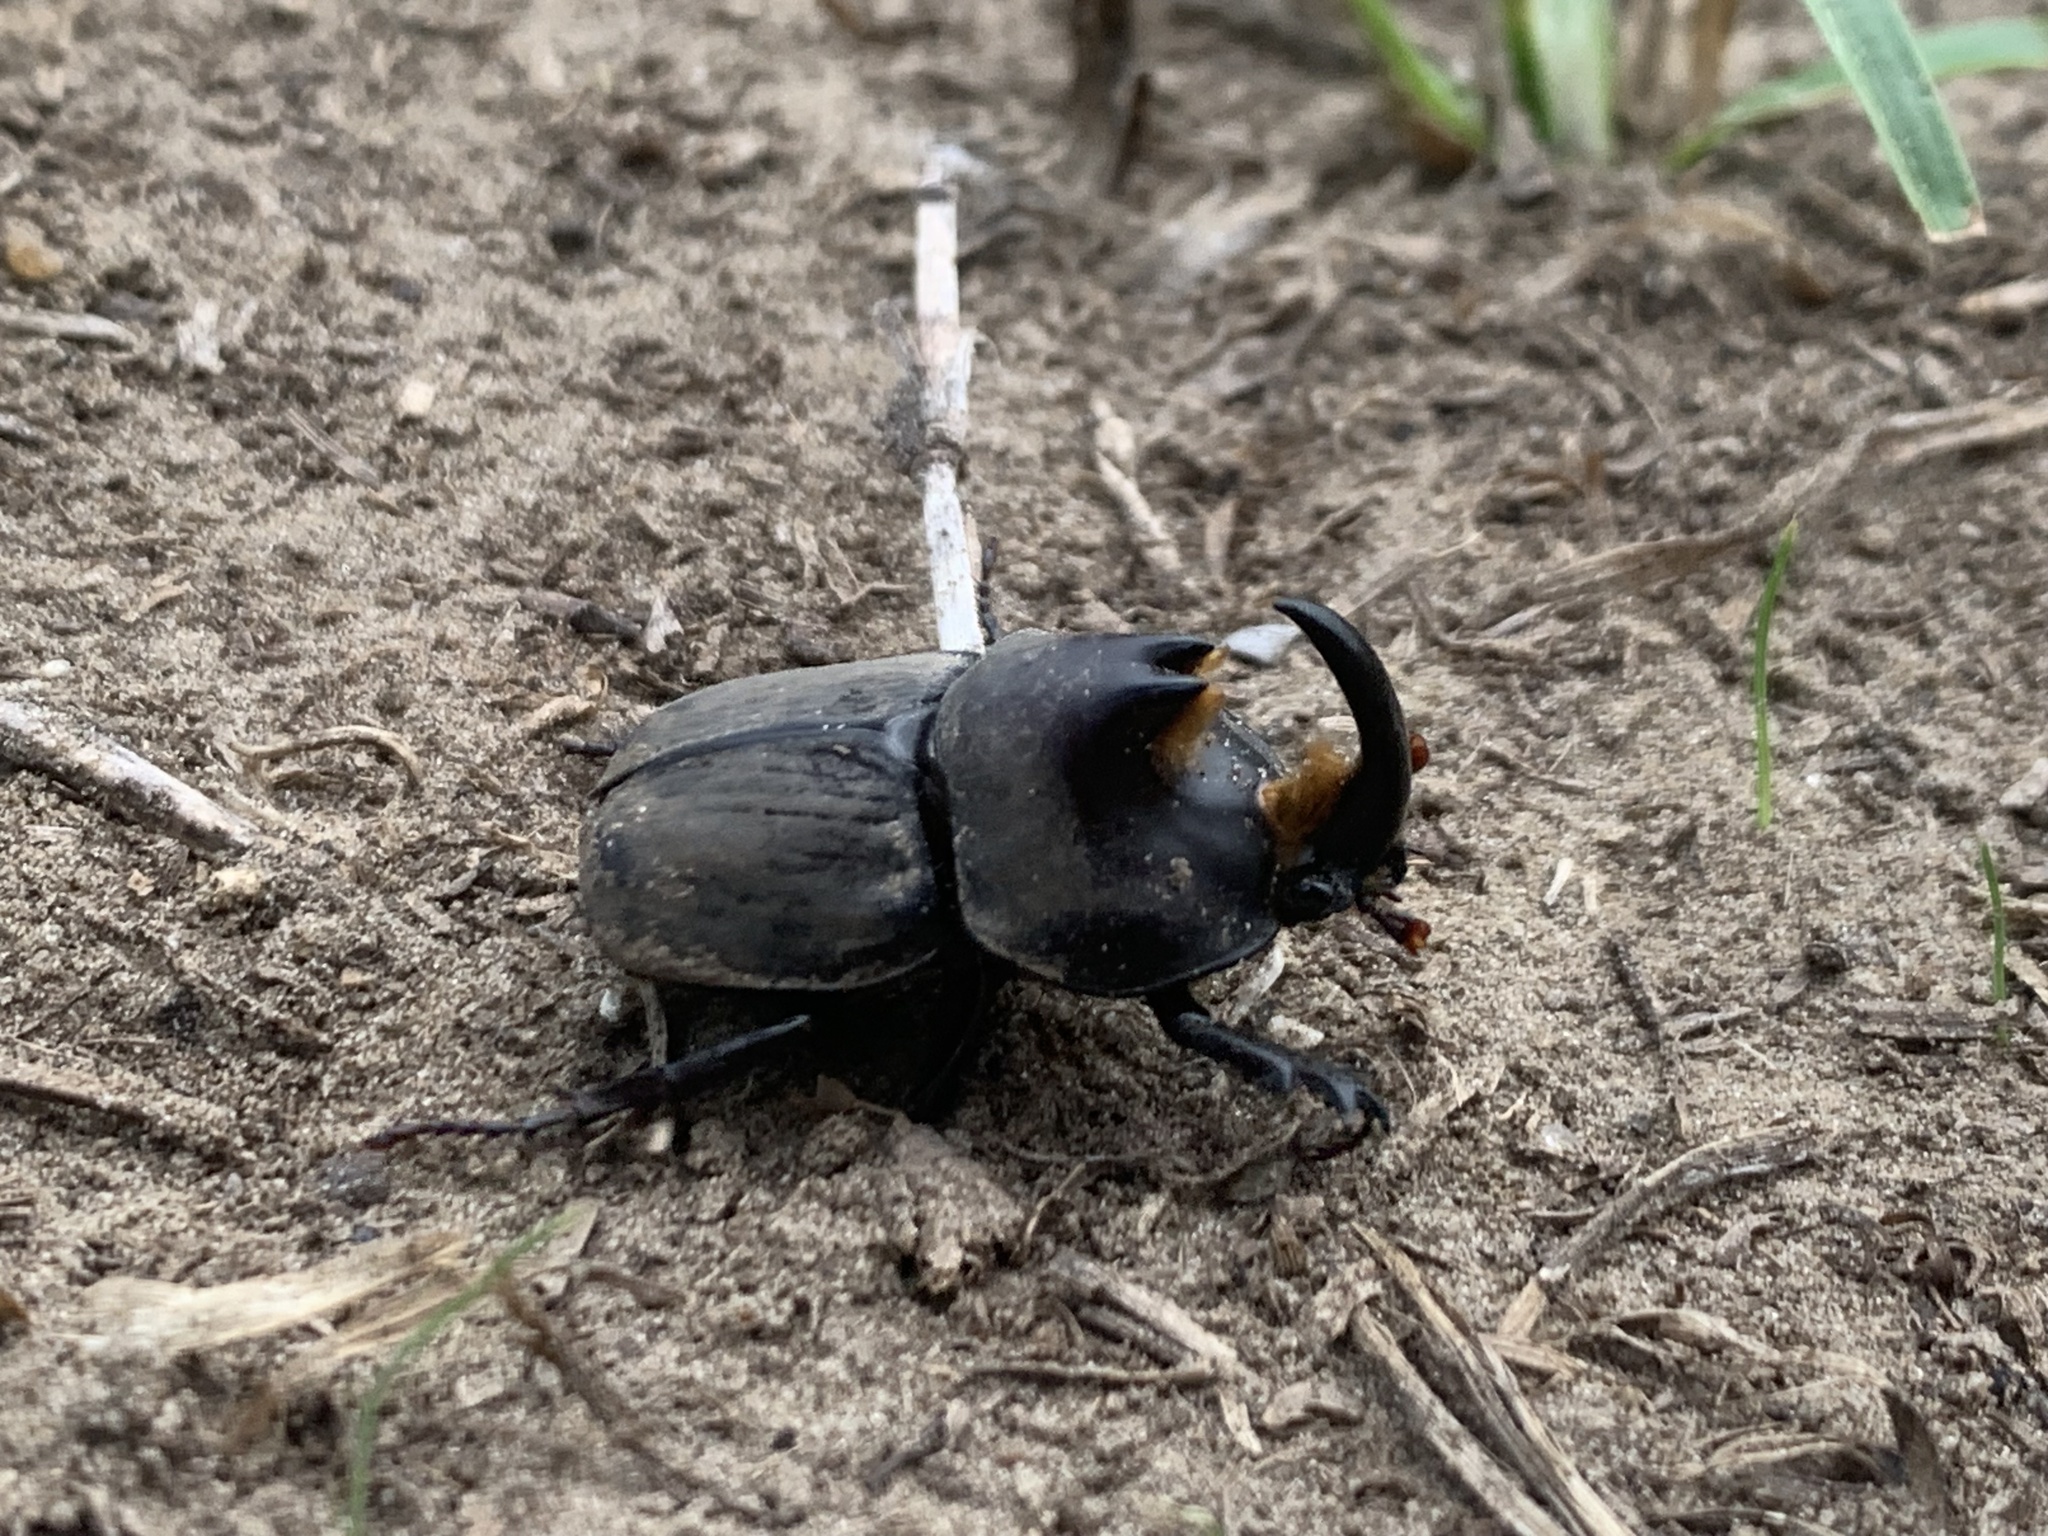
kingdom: Animalia
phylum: Arthropoda
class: Insecta
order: Coleoptera
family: Scarabaeidae
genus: Diloboderus
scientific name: Diloboderus abderus
